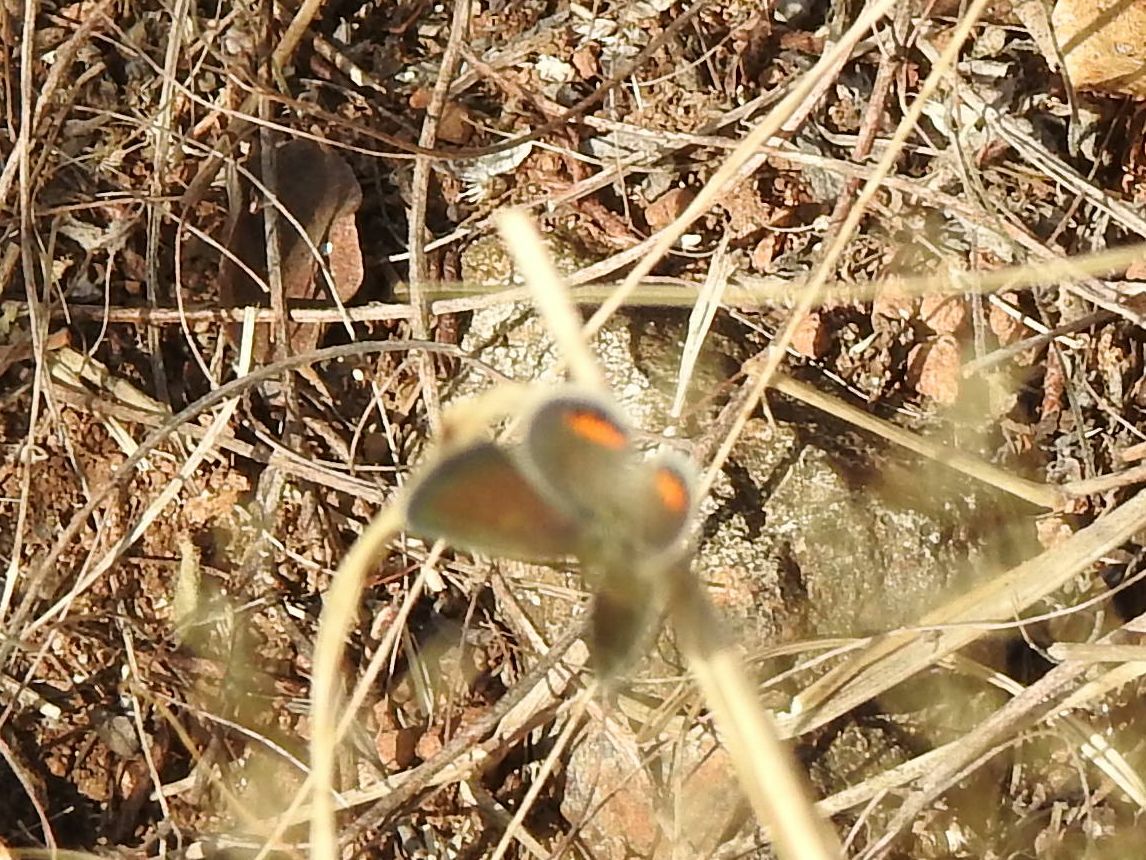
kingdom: Animalia
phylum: Arthropoda
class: Insecta
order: Lepidoptera
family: Lycaenidae
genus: Freyeria
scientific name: Freyeria trochylus
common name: Grass jewel
